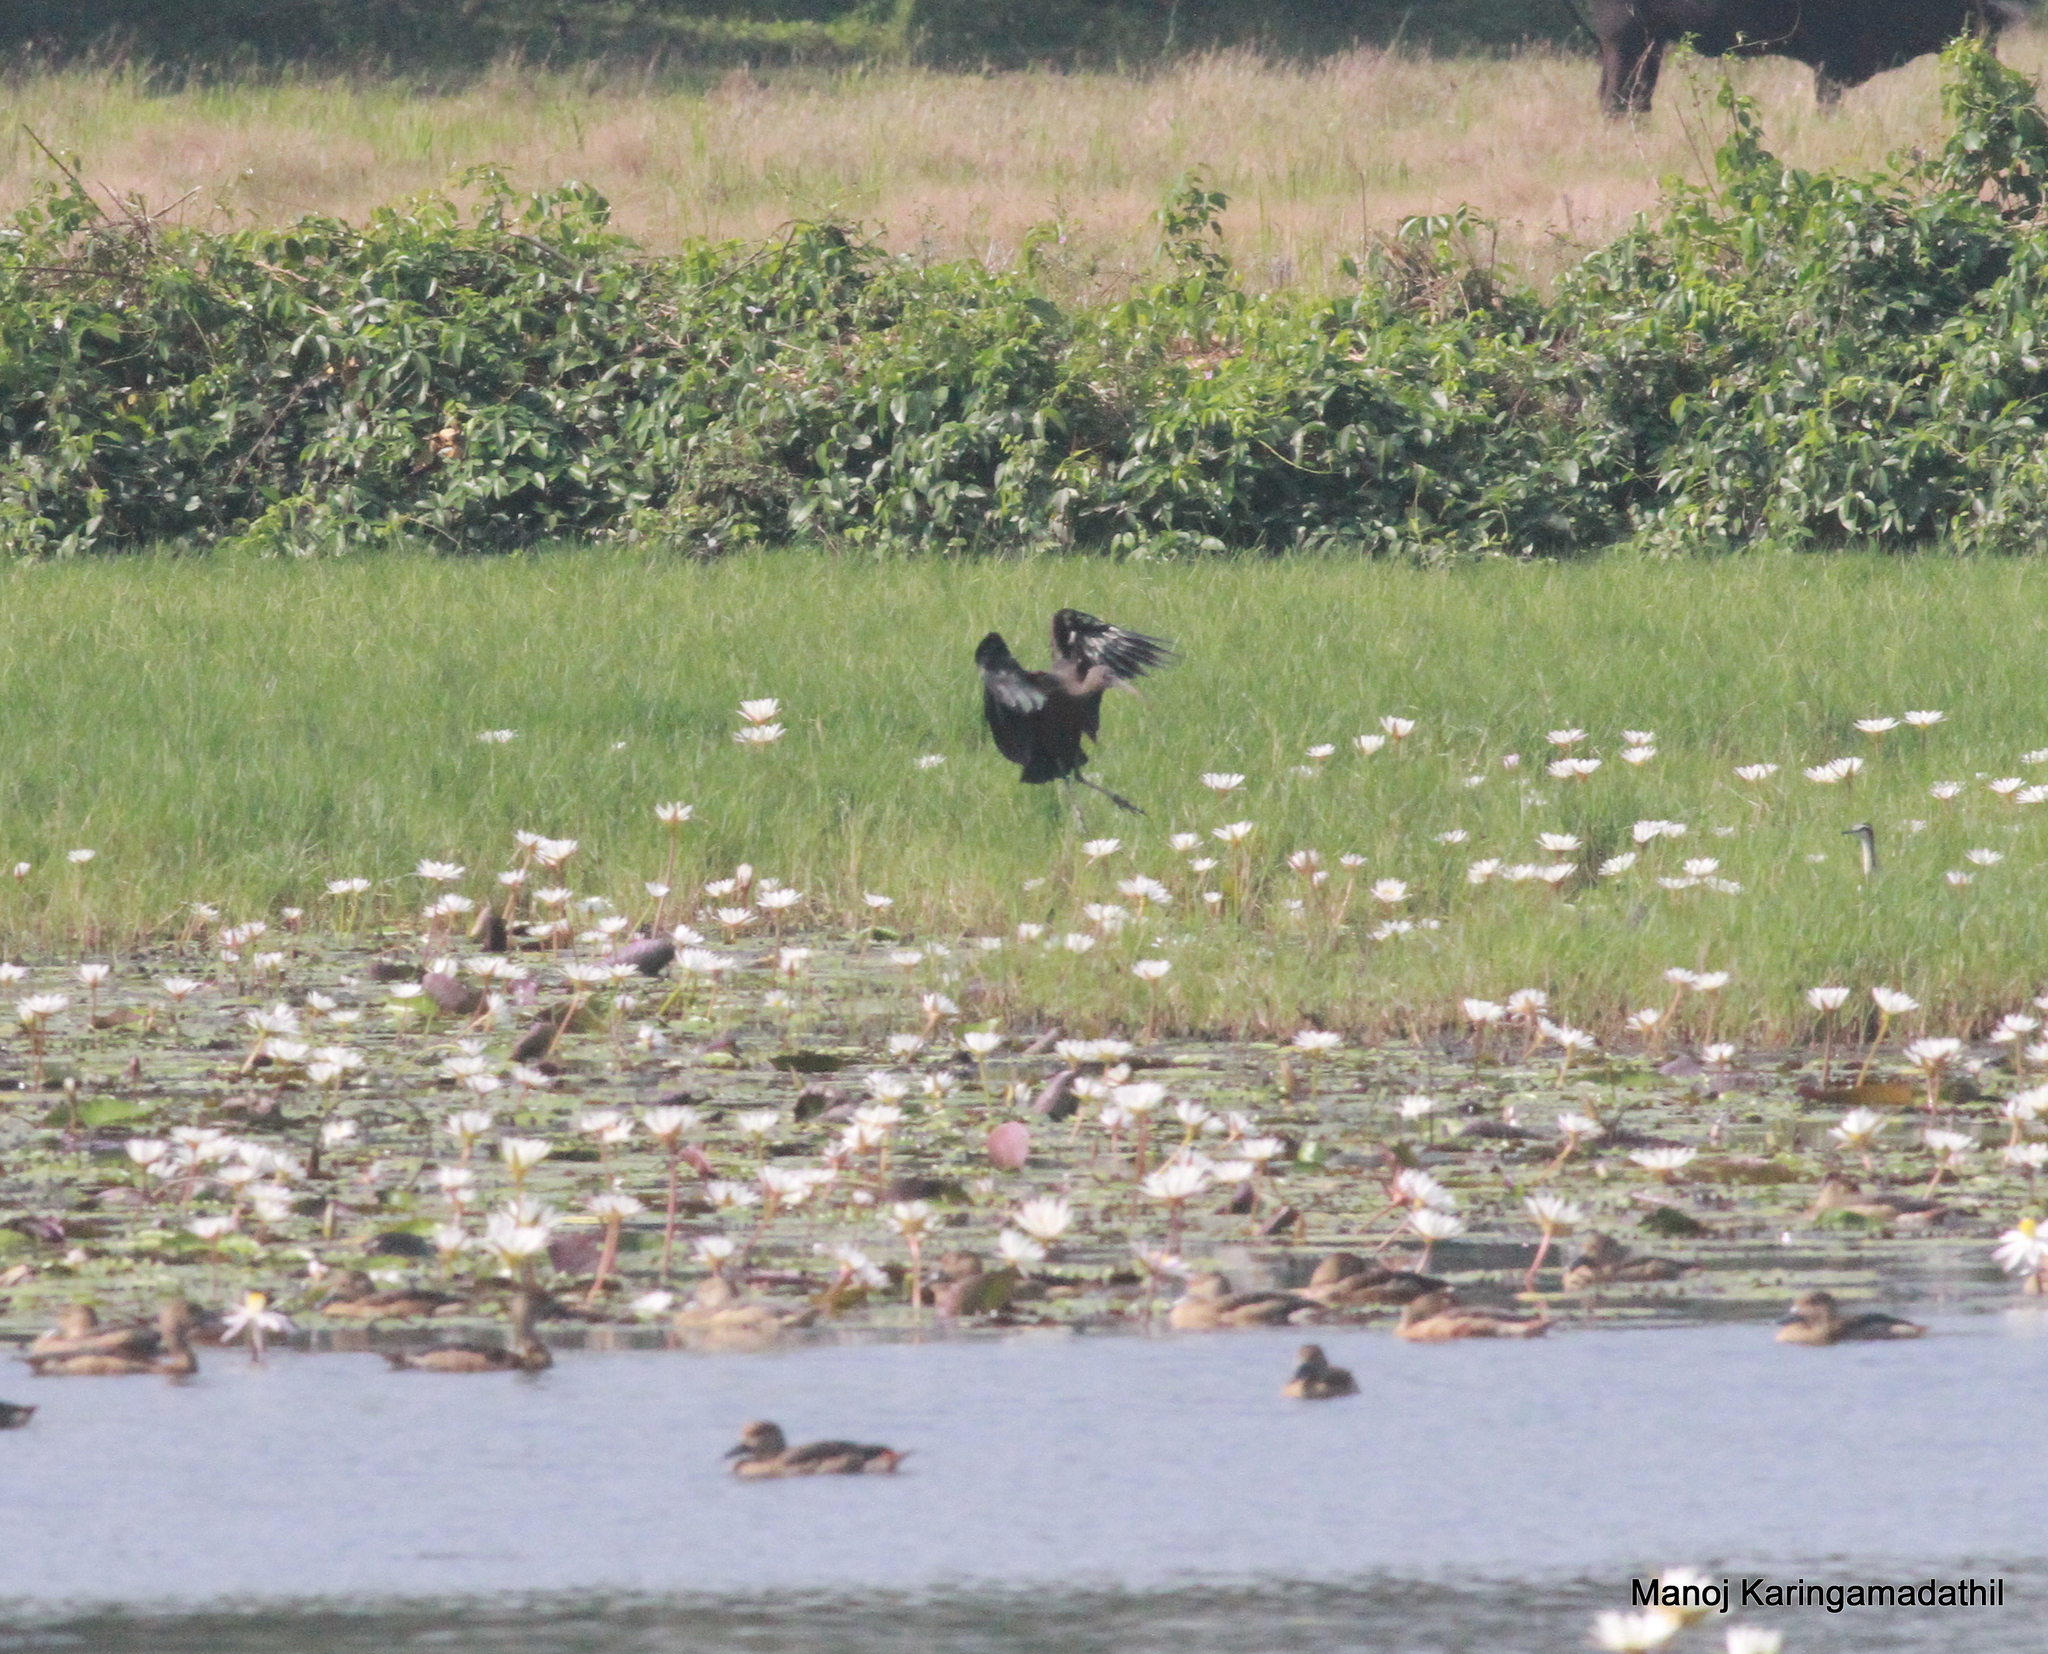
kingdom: Animalia
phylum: Chordata
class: Aves
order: Pelecaniformes
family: Threskiornithidae
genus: Plegadis
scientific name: Plegadis falcinellus
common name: Glossy ibis
